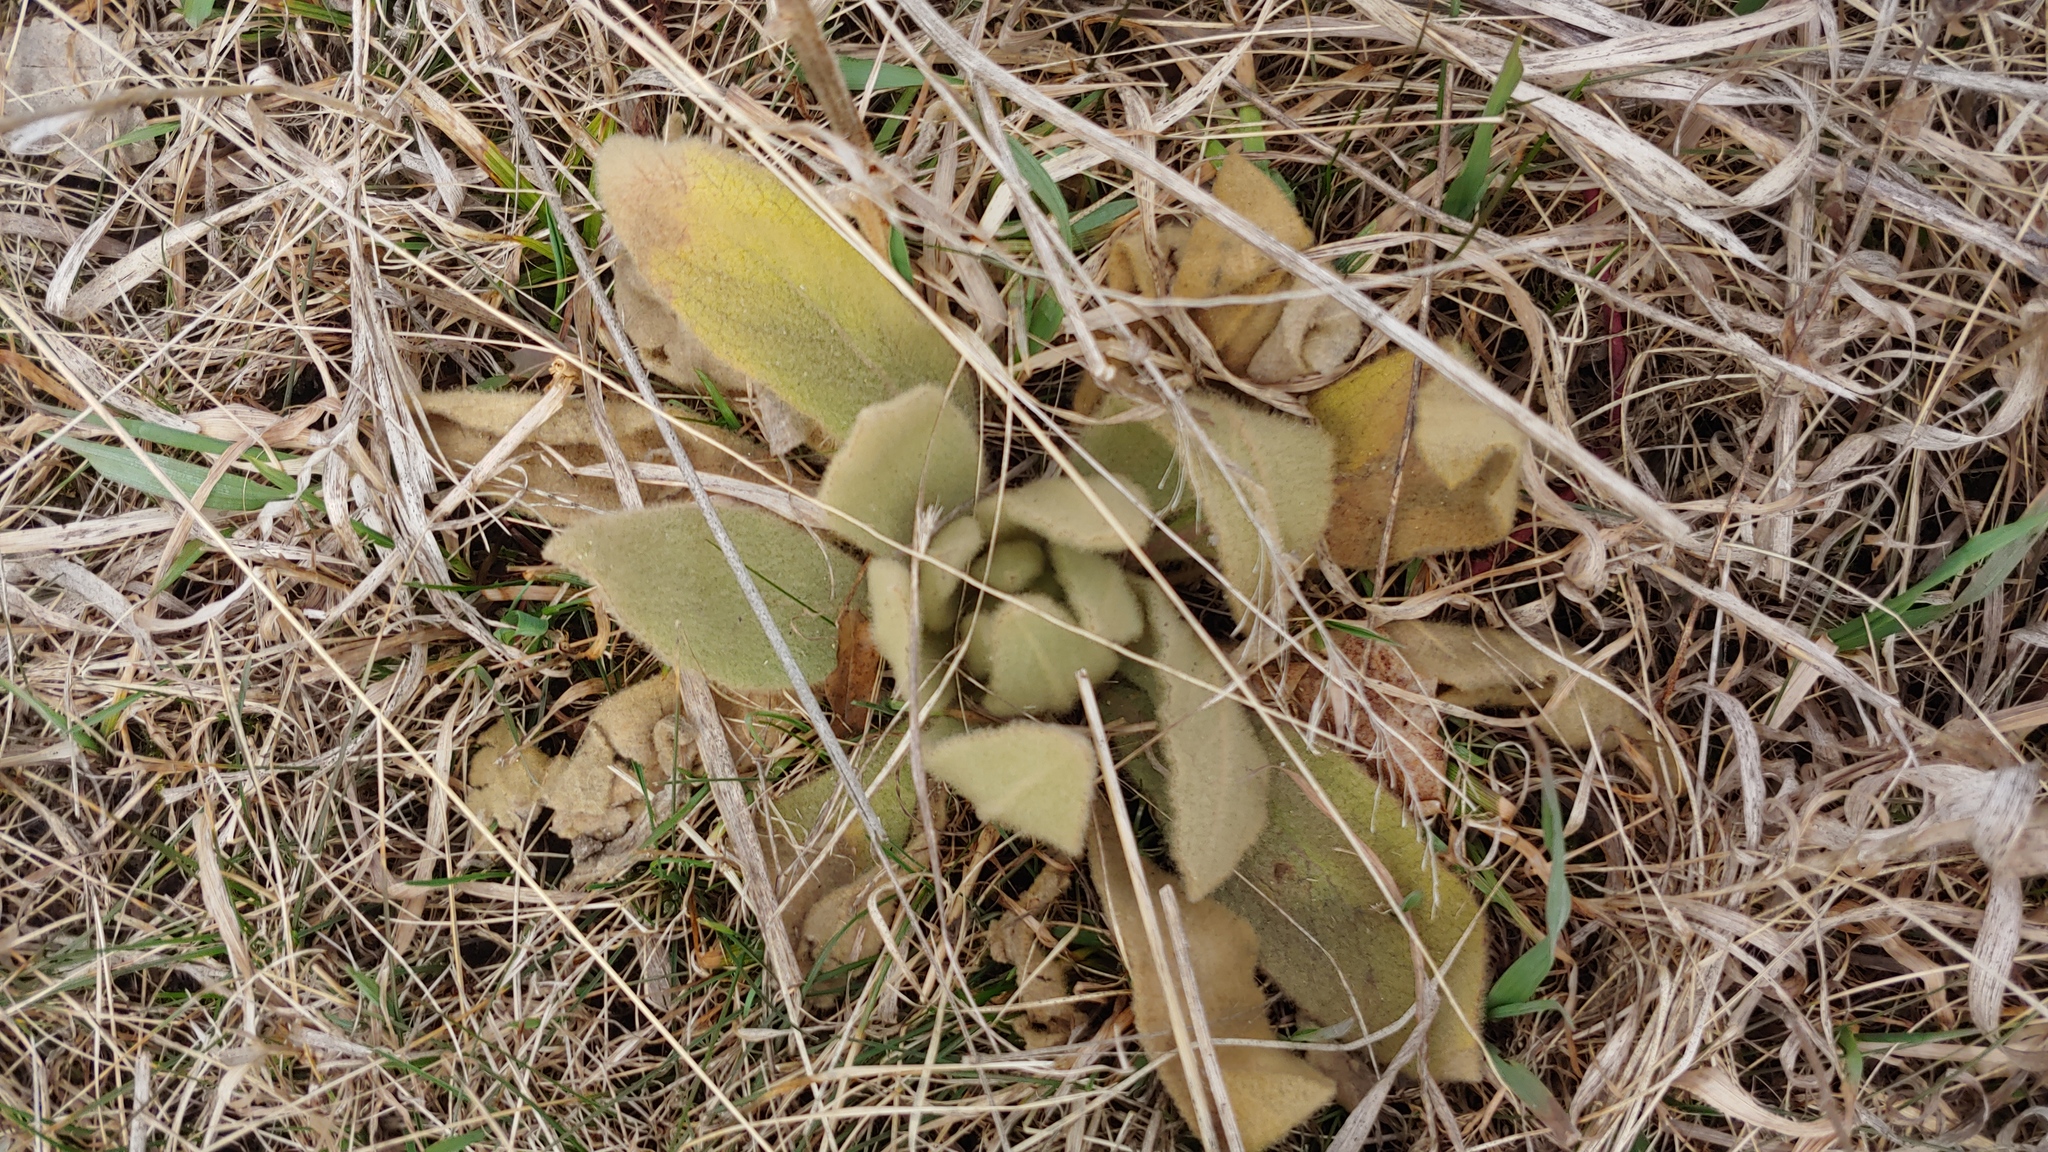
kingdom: Plantae
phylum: Tracheophyta
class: Magnoliopsida
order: Lamiales
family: Scrophulariaceae
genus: Verbascum
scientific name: Verbascum thapsus
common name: Common mullein
